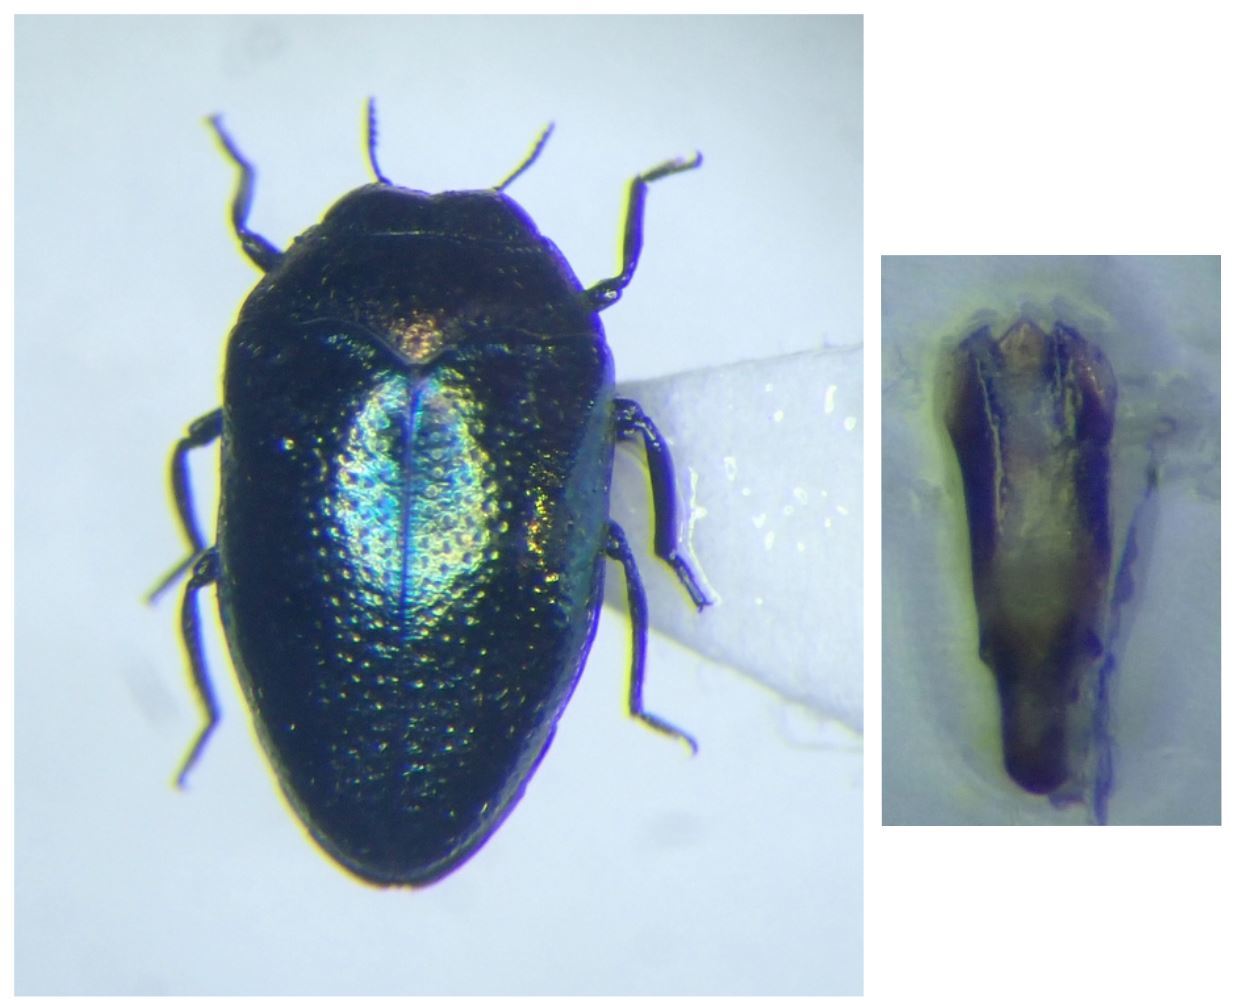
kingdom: Animalia
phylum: Arthropoda
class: Insecta
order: Coleoptera
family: Buprestidae
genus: Trachys
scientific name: Trachys troglodytiformis
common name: Metallic wood-boring beetle
